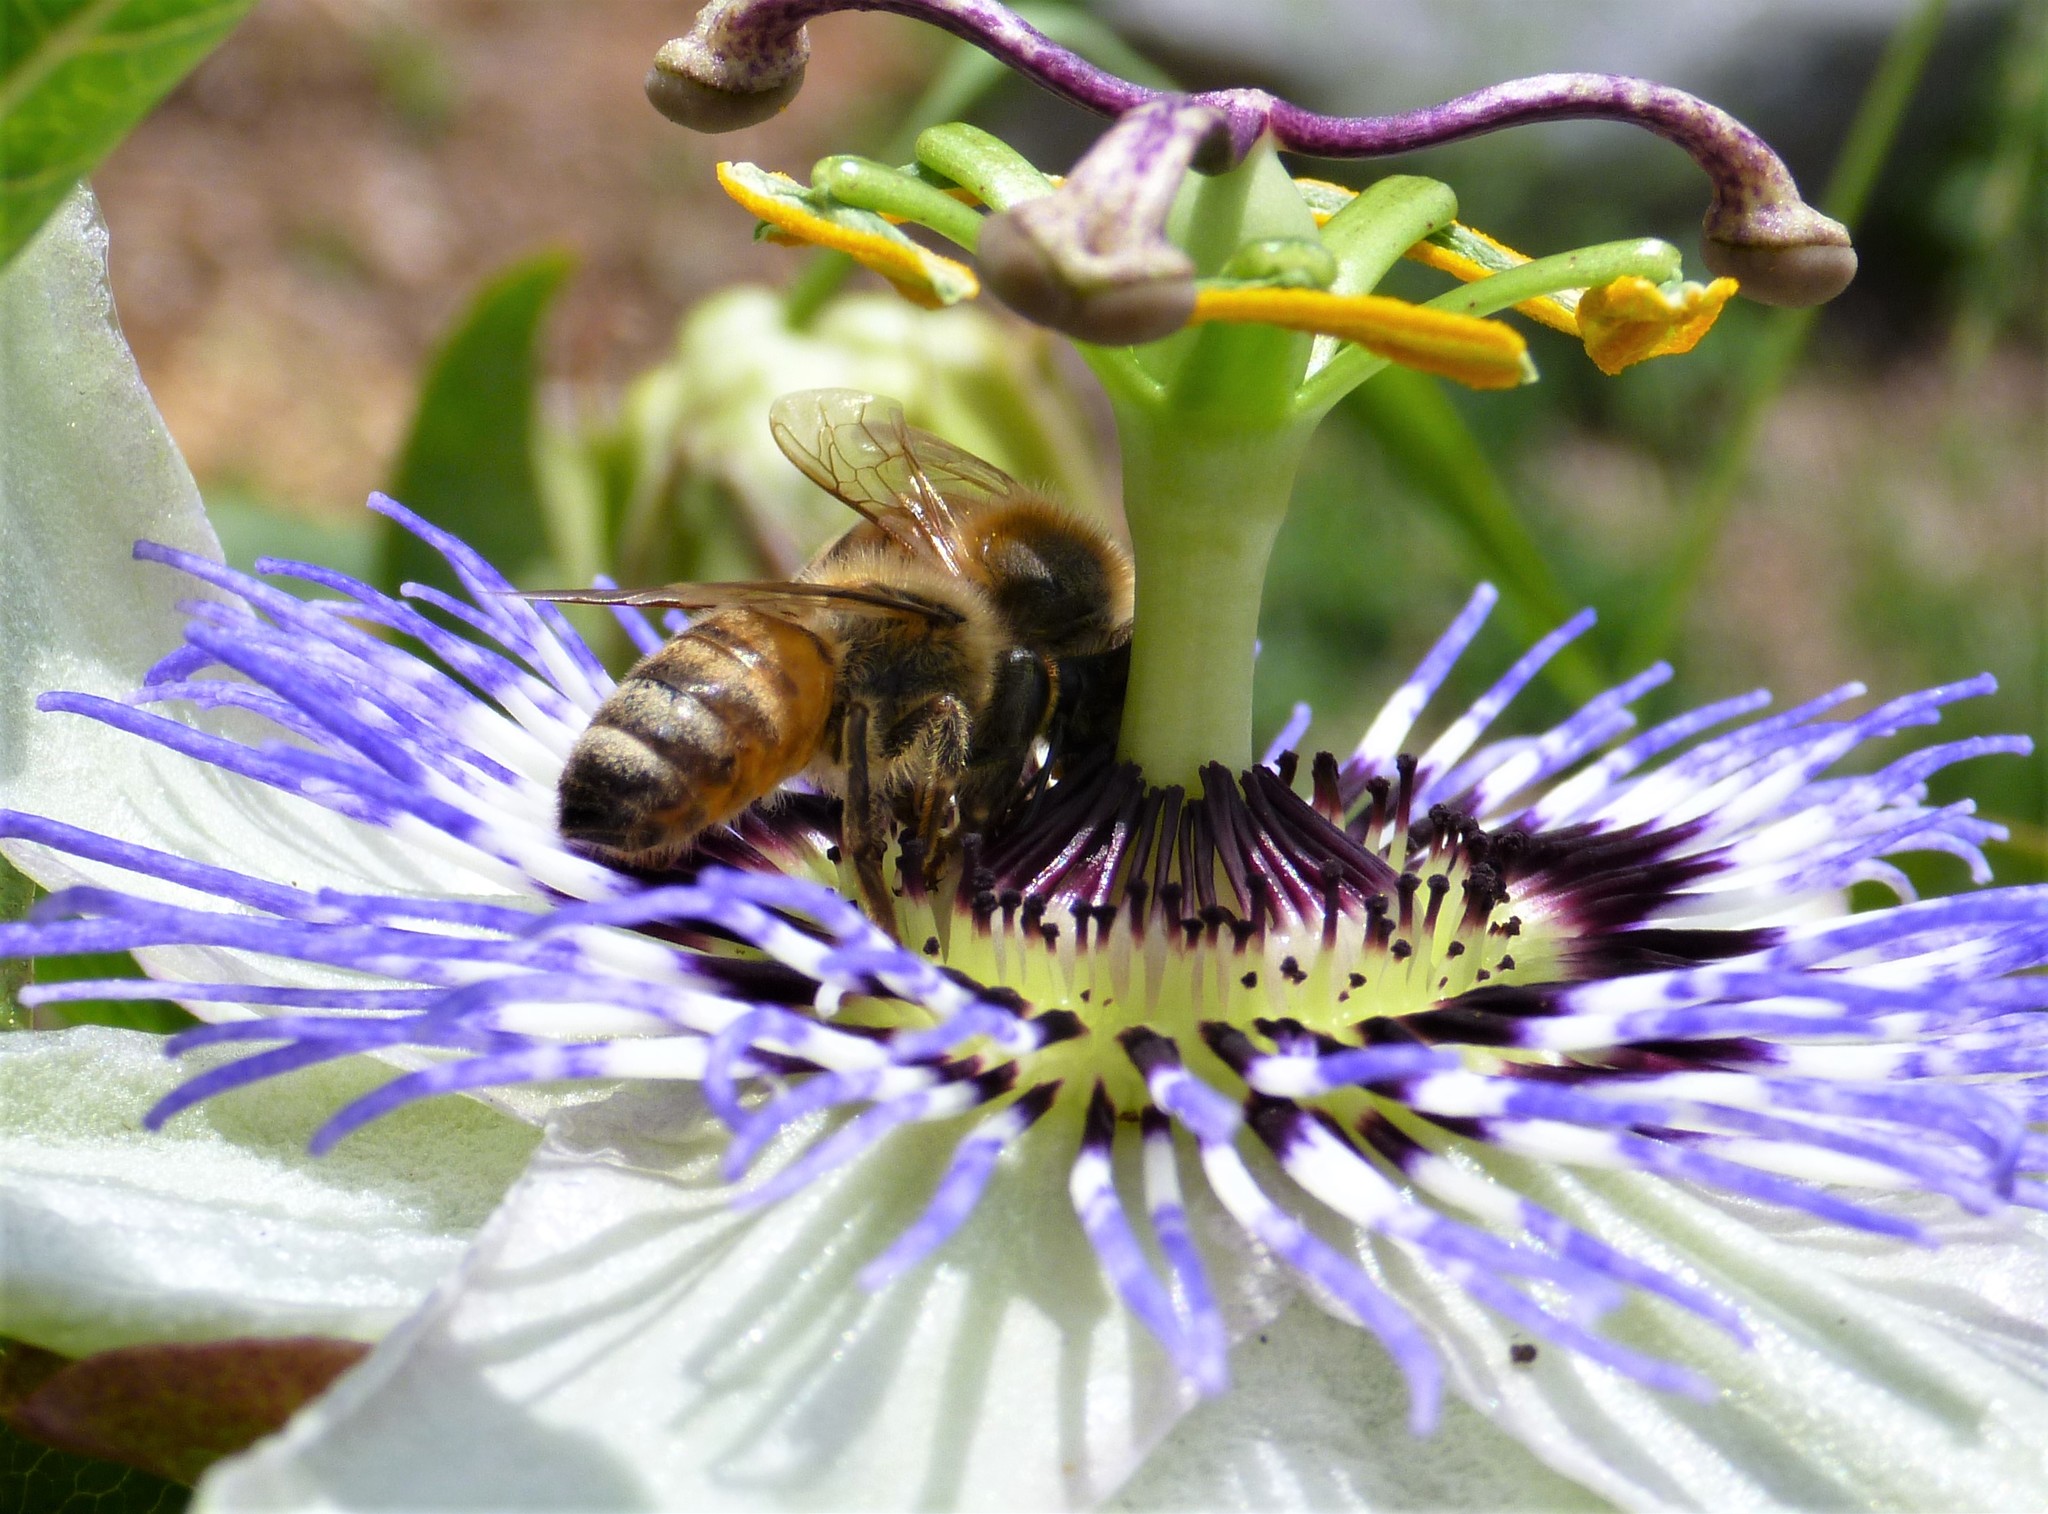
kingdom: Animalia
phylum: Arthropoda
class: Insecta
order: Hymenoptera
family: Apidae
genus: Apis
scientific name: Apis mellifera
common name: Honey bee
